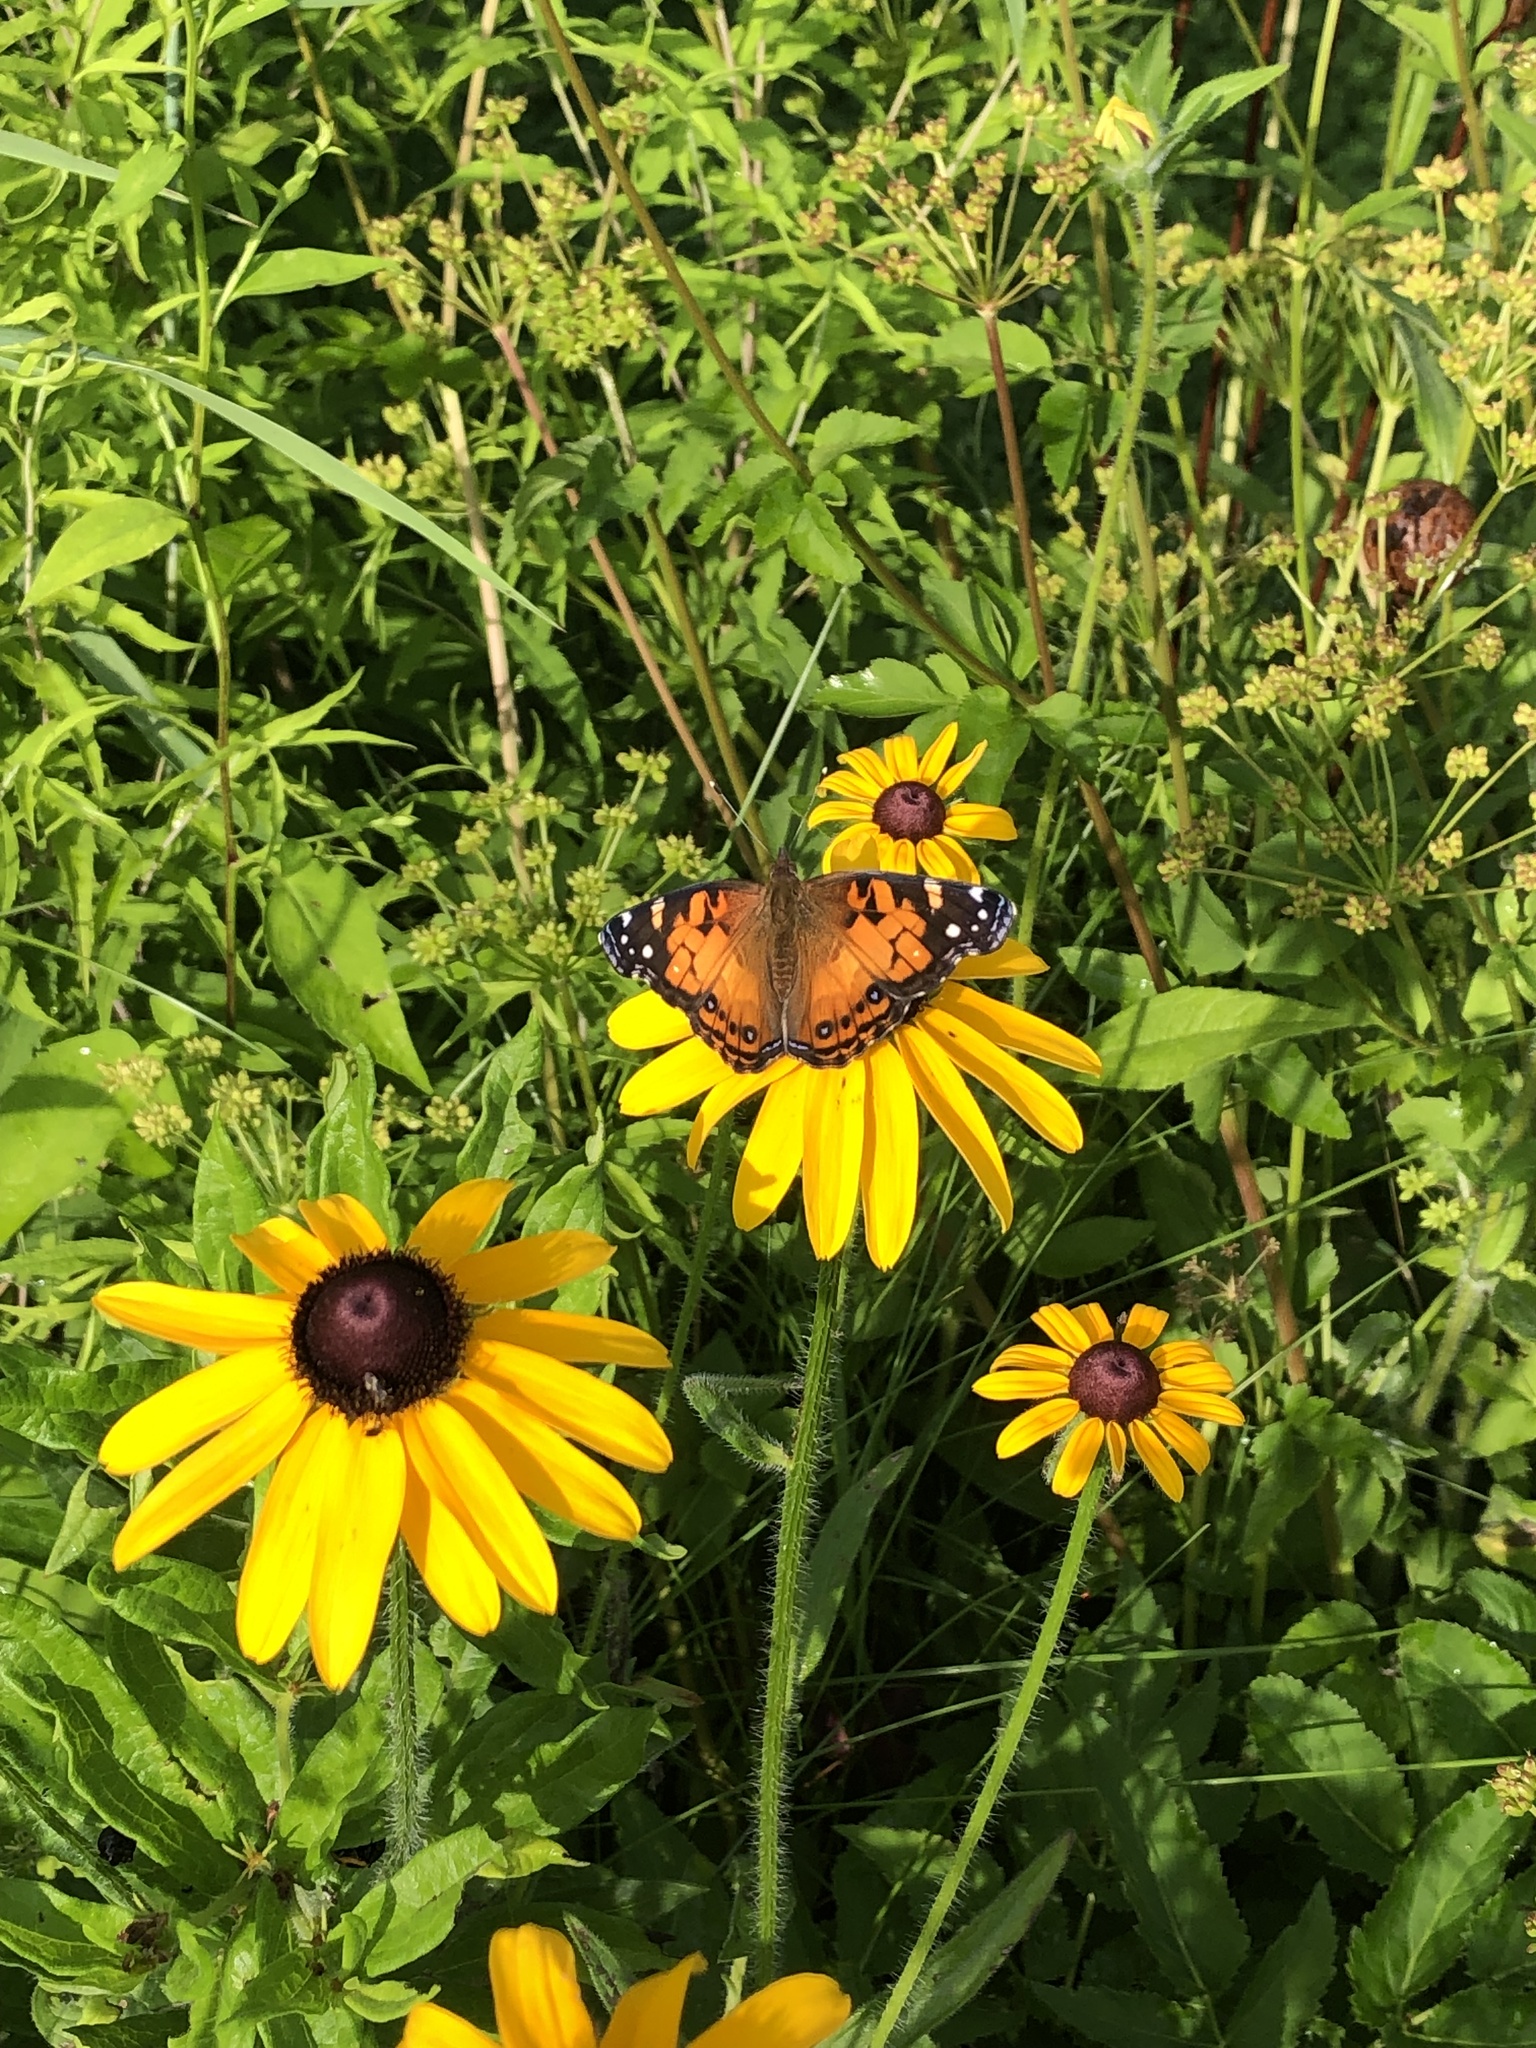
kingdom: Animalia
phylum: Arthropoda
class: Insecta
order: Lepidoptera
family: Nymphalidae
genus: Vanessa
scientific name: Vanessa virginiensis
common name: American lady
